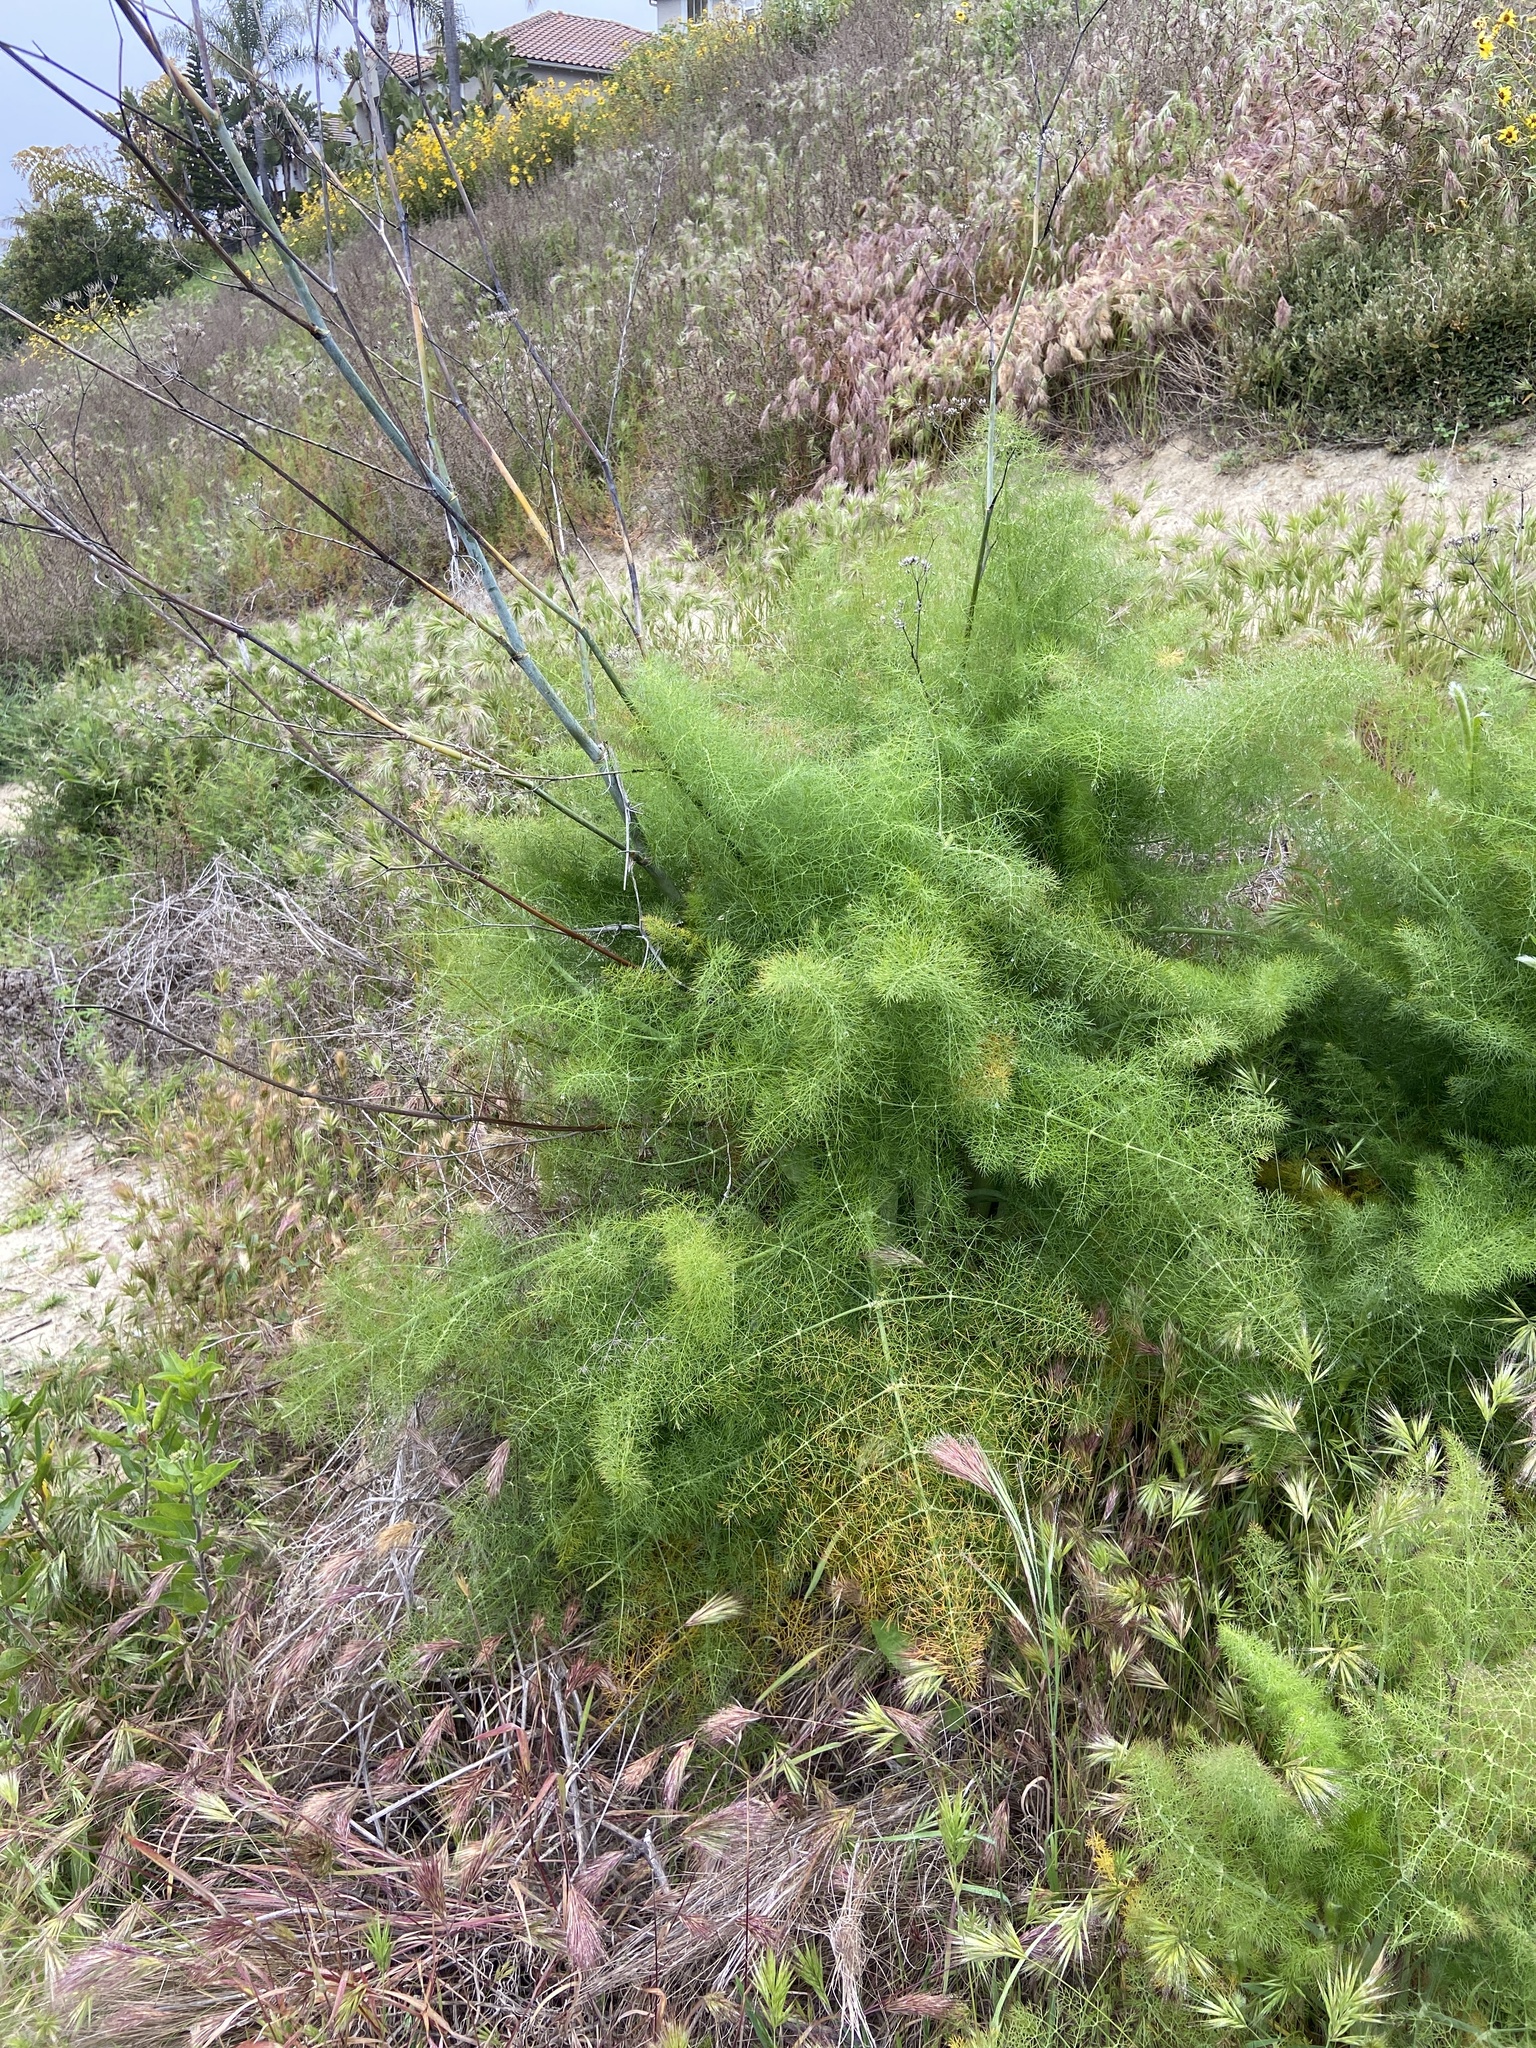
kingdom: Plantae
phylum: Tracheophyta
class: Magnoliopsida
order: Apiales
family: Apiaceae
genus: Foeniculum
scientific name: Foeniculum vulgare
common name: Fennel
